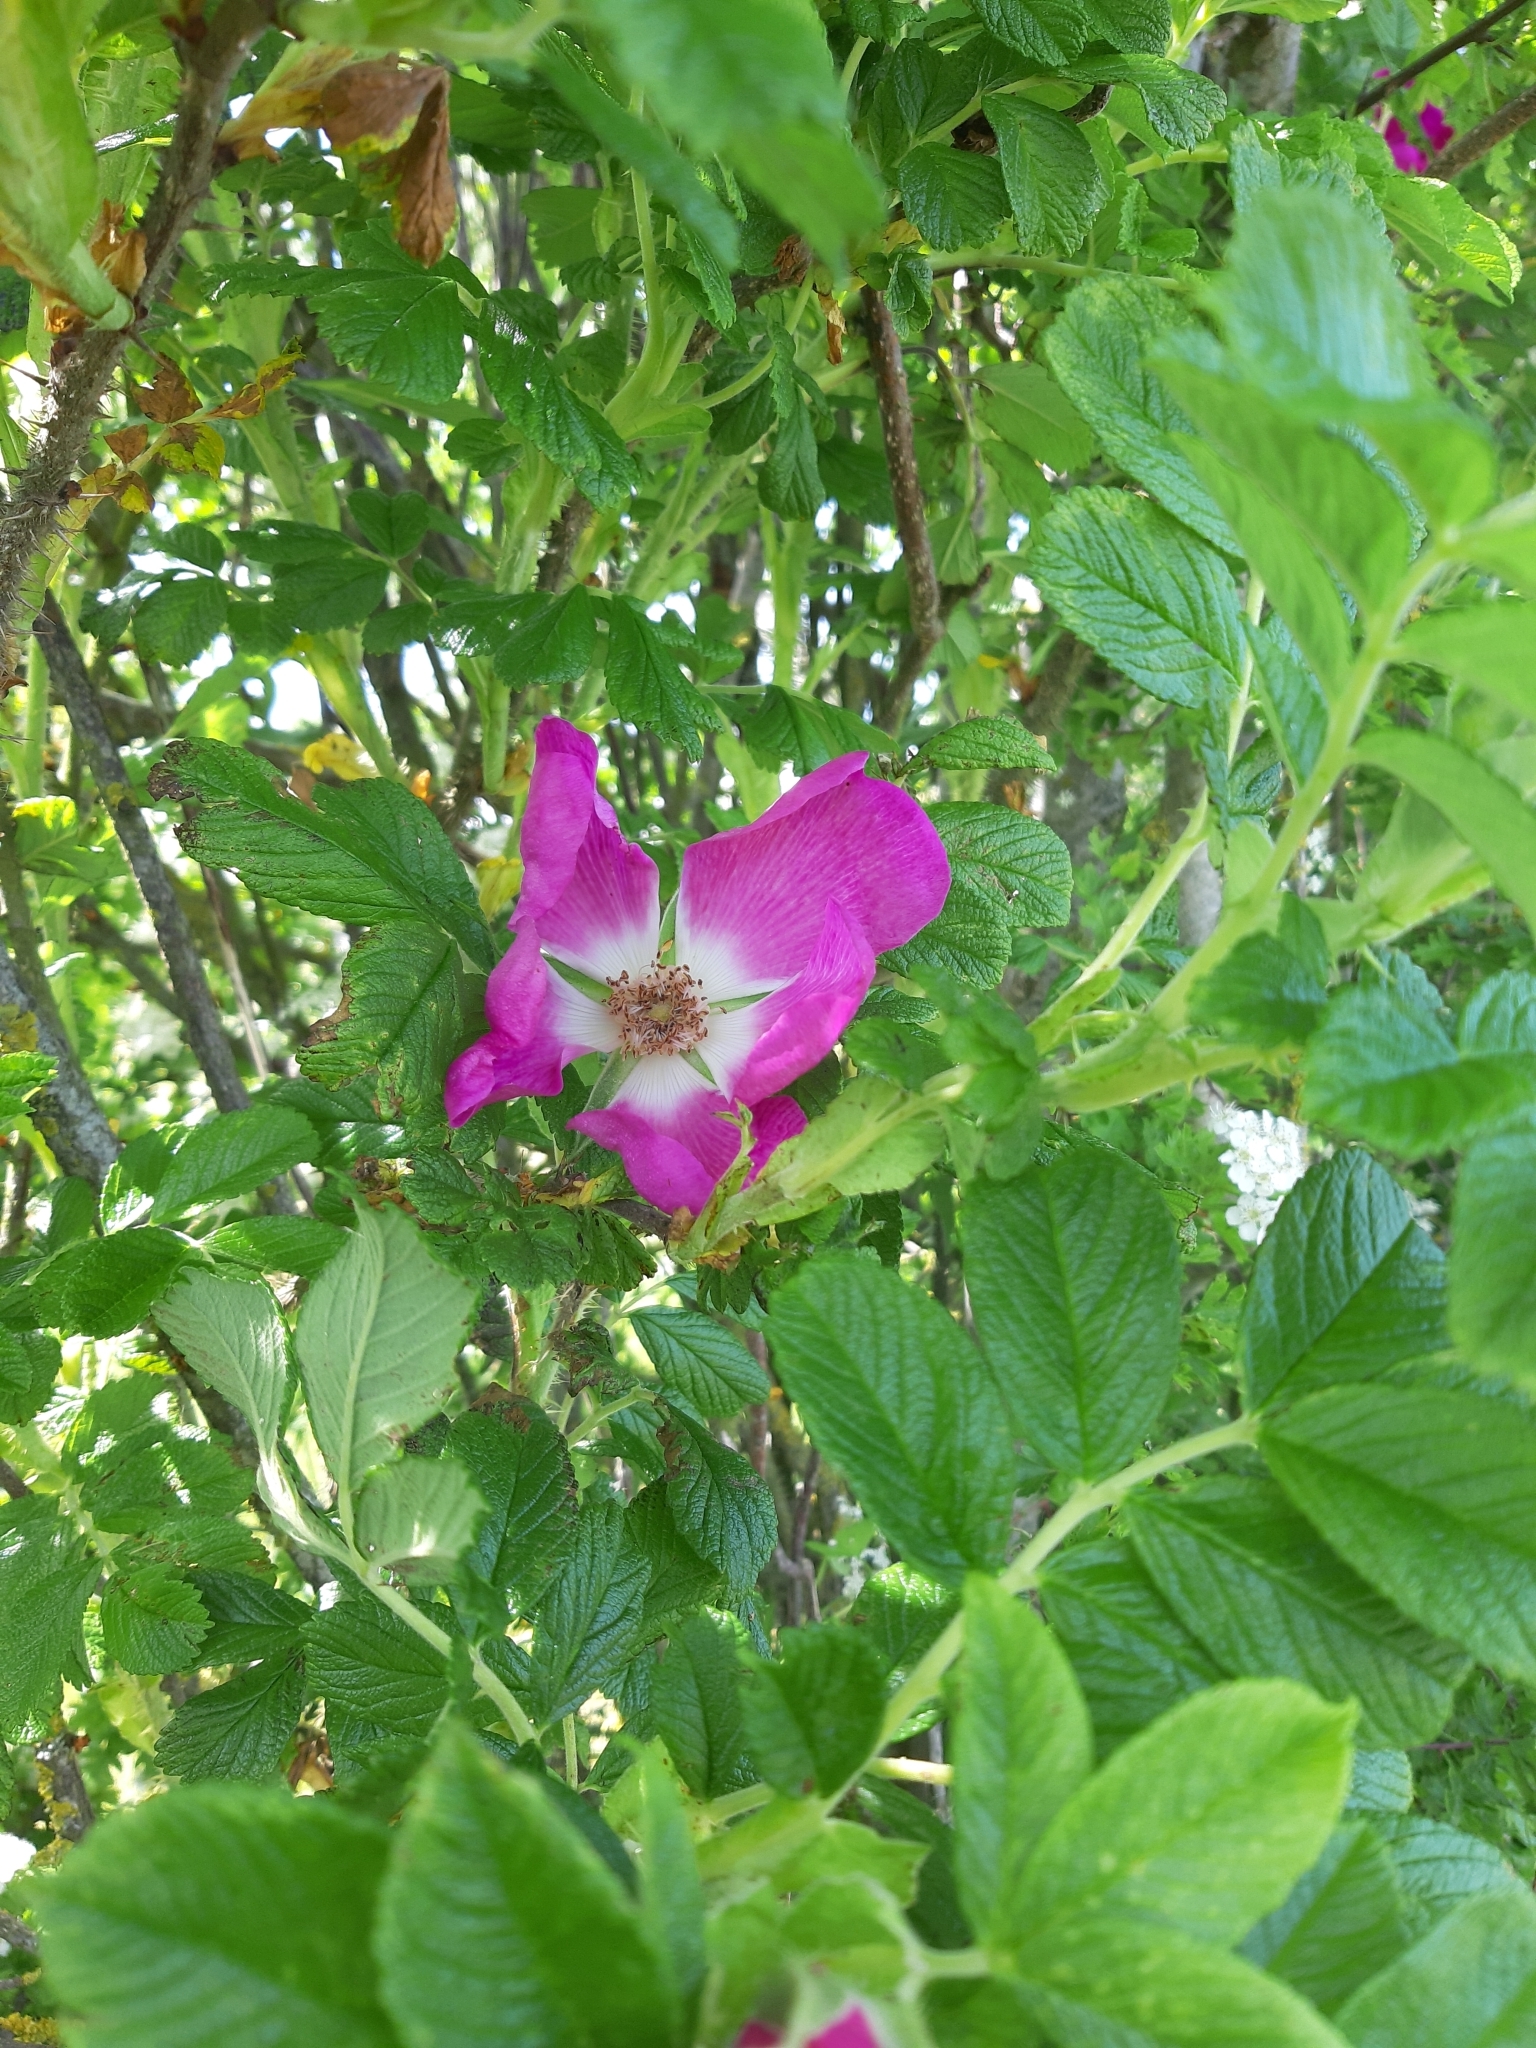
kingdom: Plantae
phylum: Tracheophyta
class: Magnoliopsida
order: Rosales
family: Rosaceae
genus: Rosa
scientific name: Rosa rugosa
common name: Japanese rose
